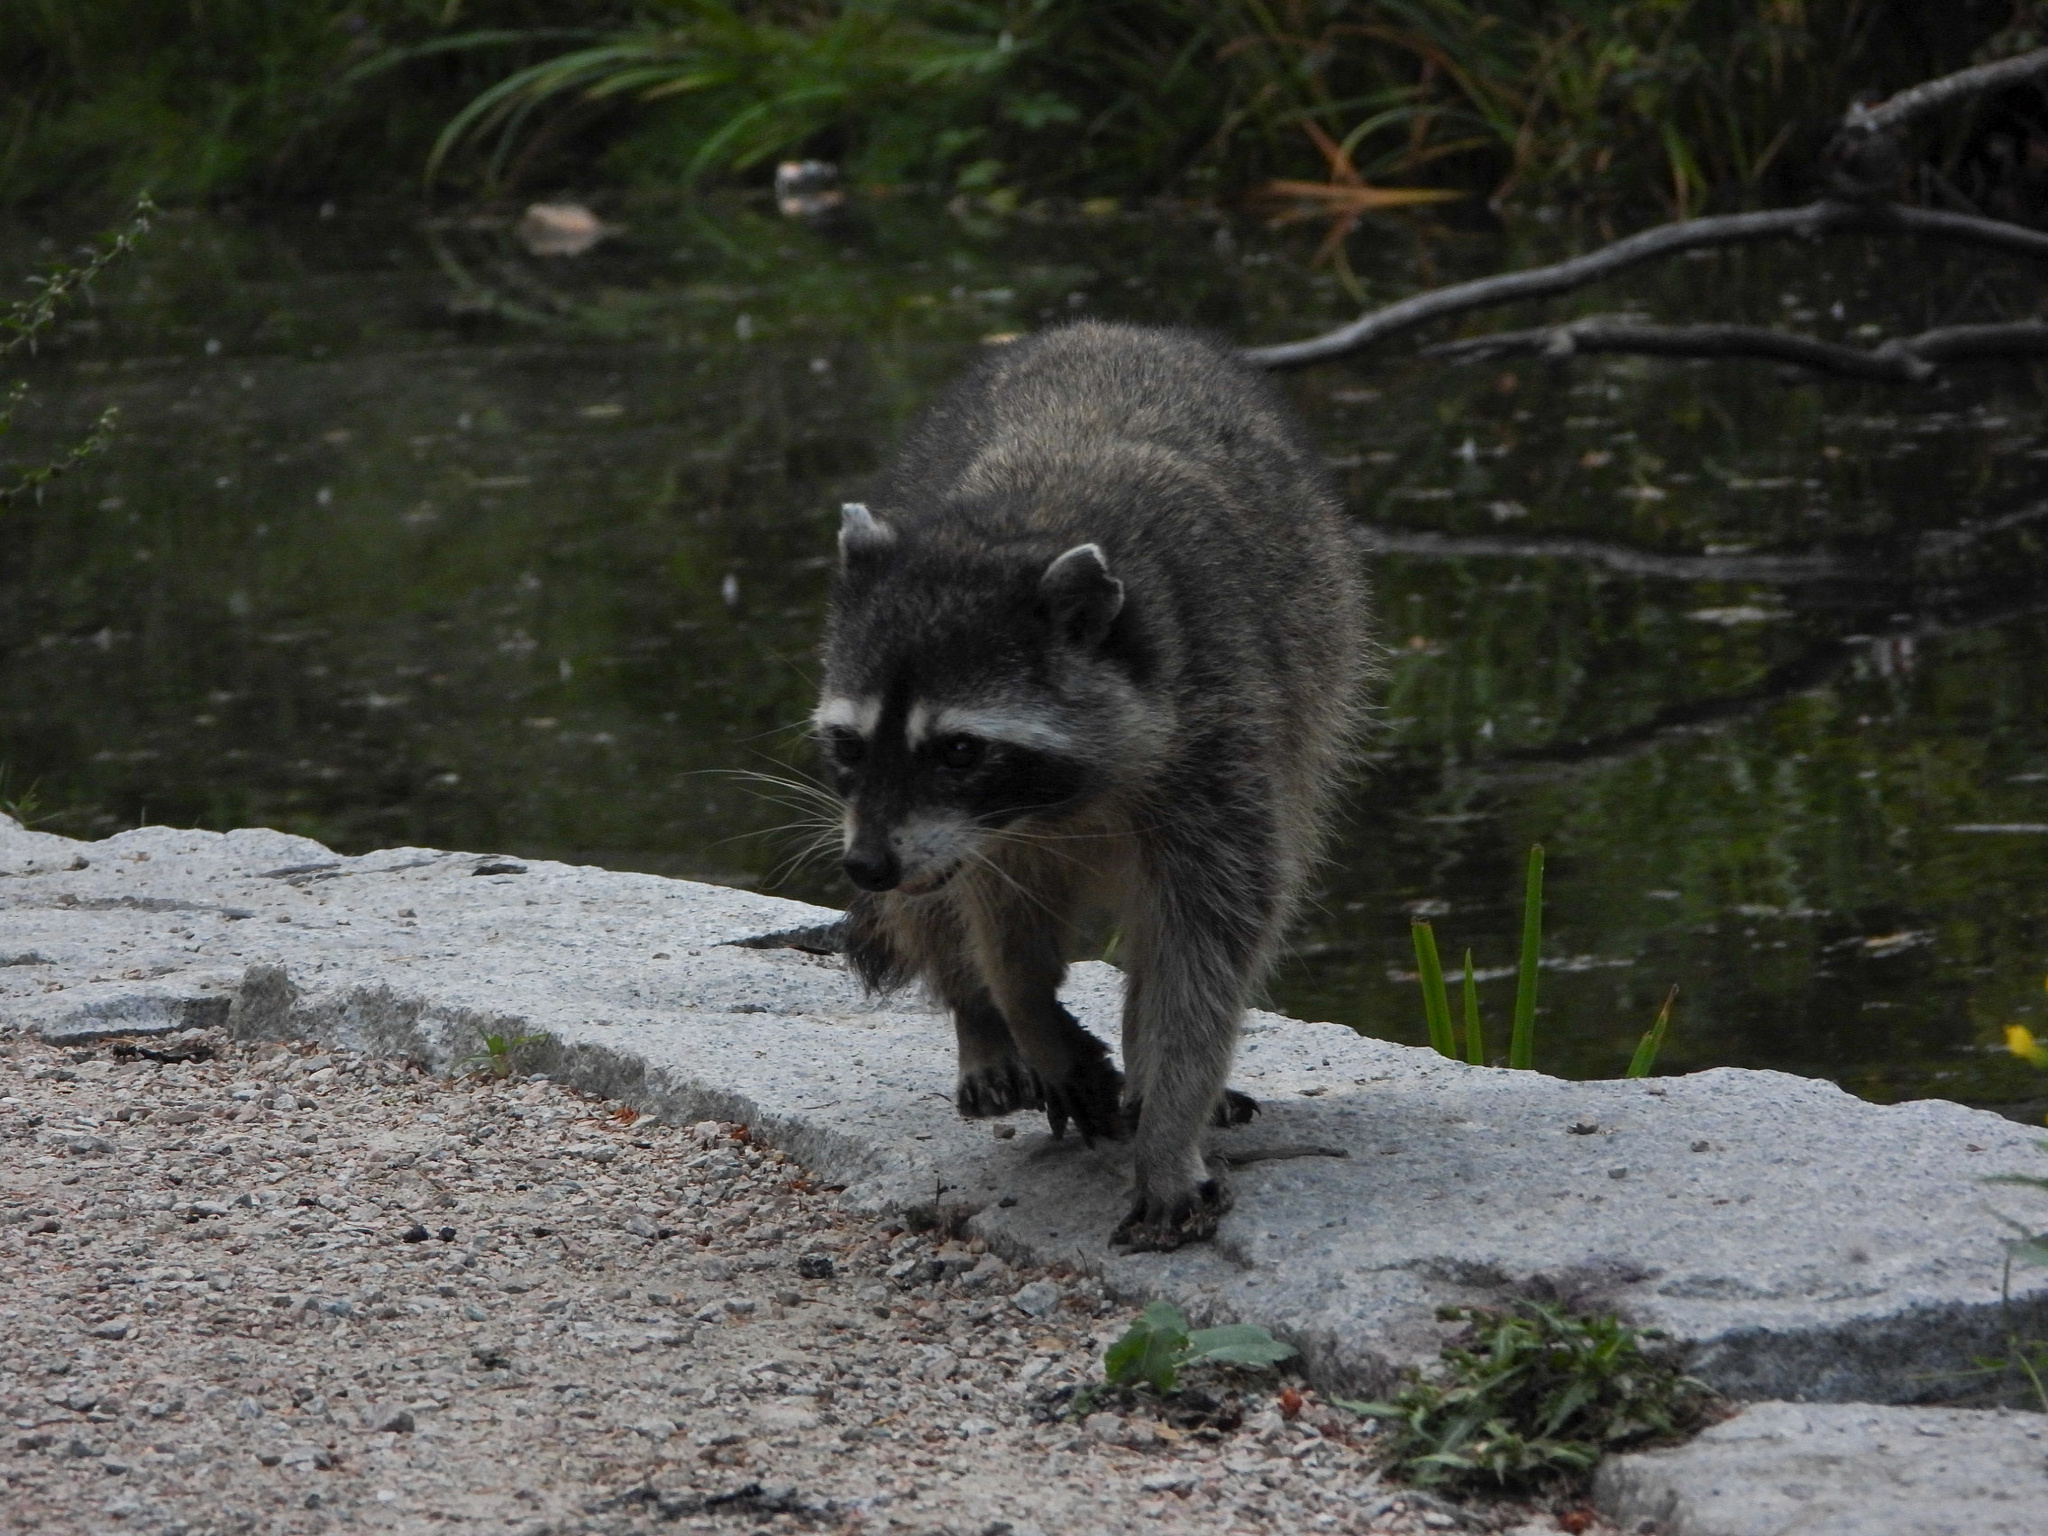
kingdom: Animalia
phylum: Chordata
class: Mammalia
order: Carnivora
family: Procyonidae
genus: Procyon
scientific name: Procyon lotor
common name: Raccoon
